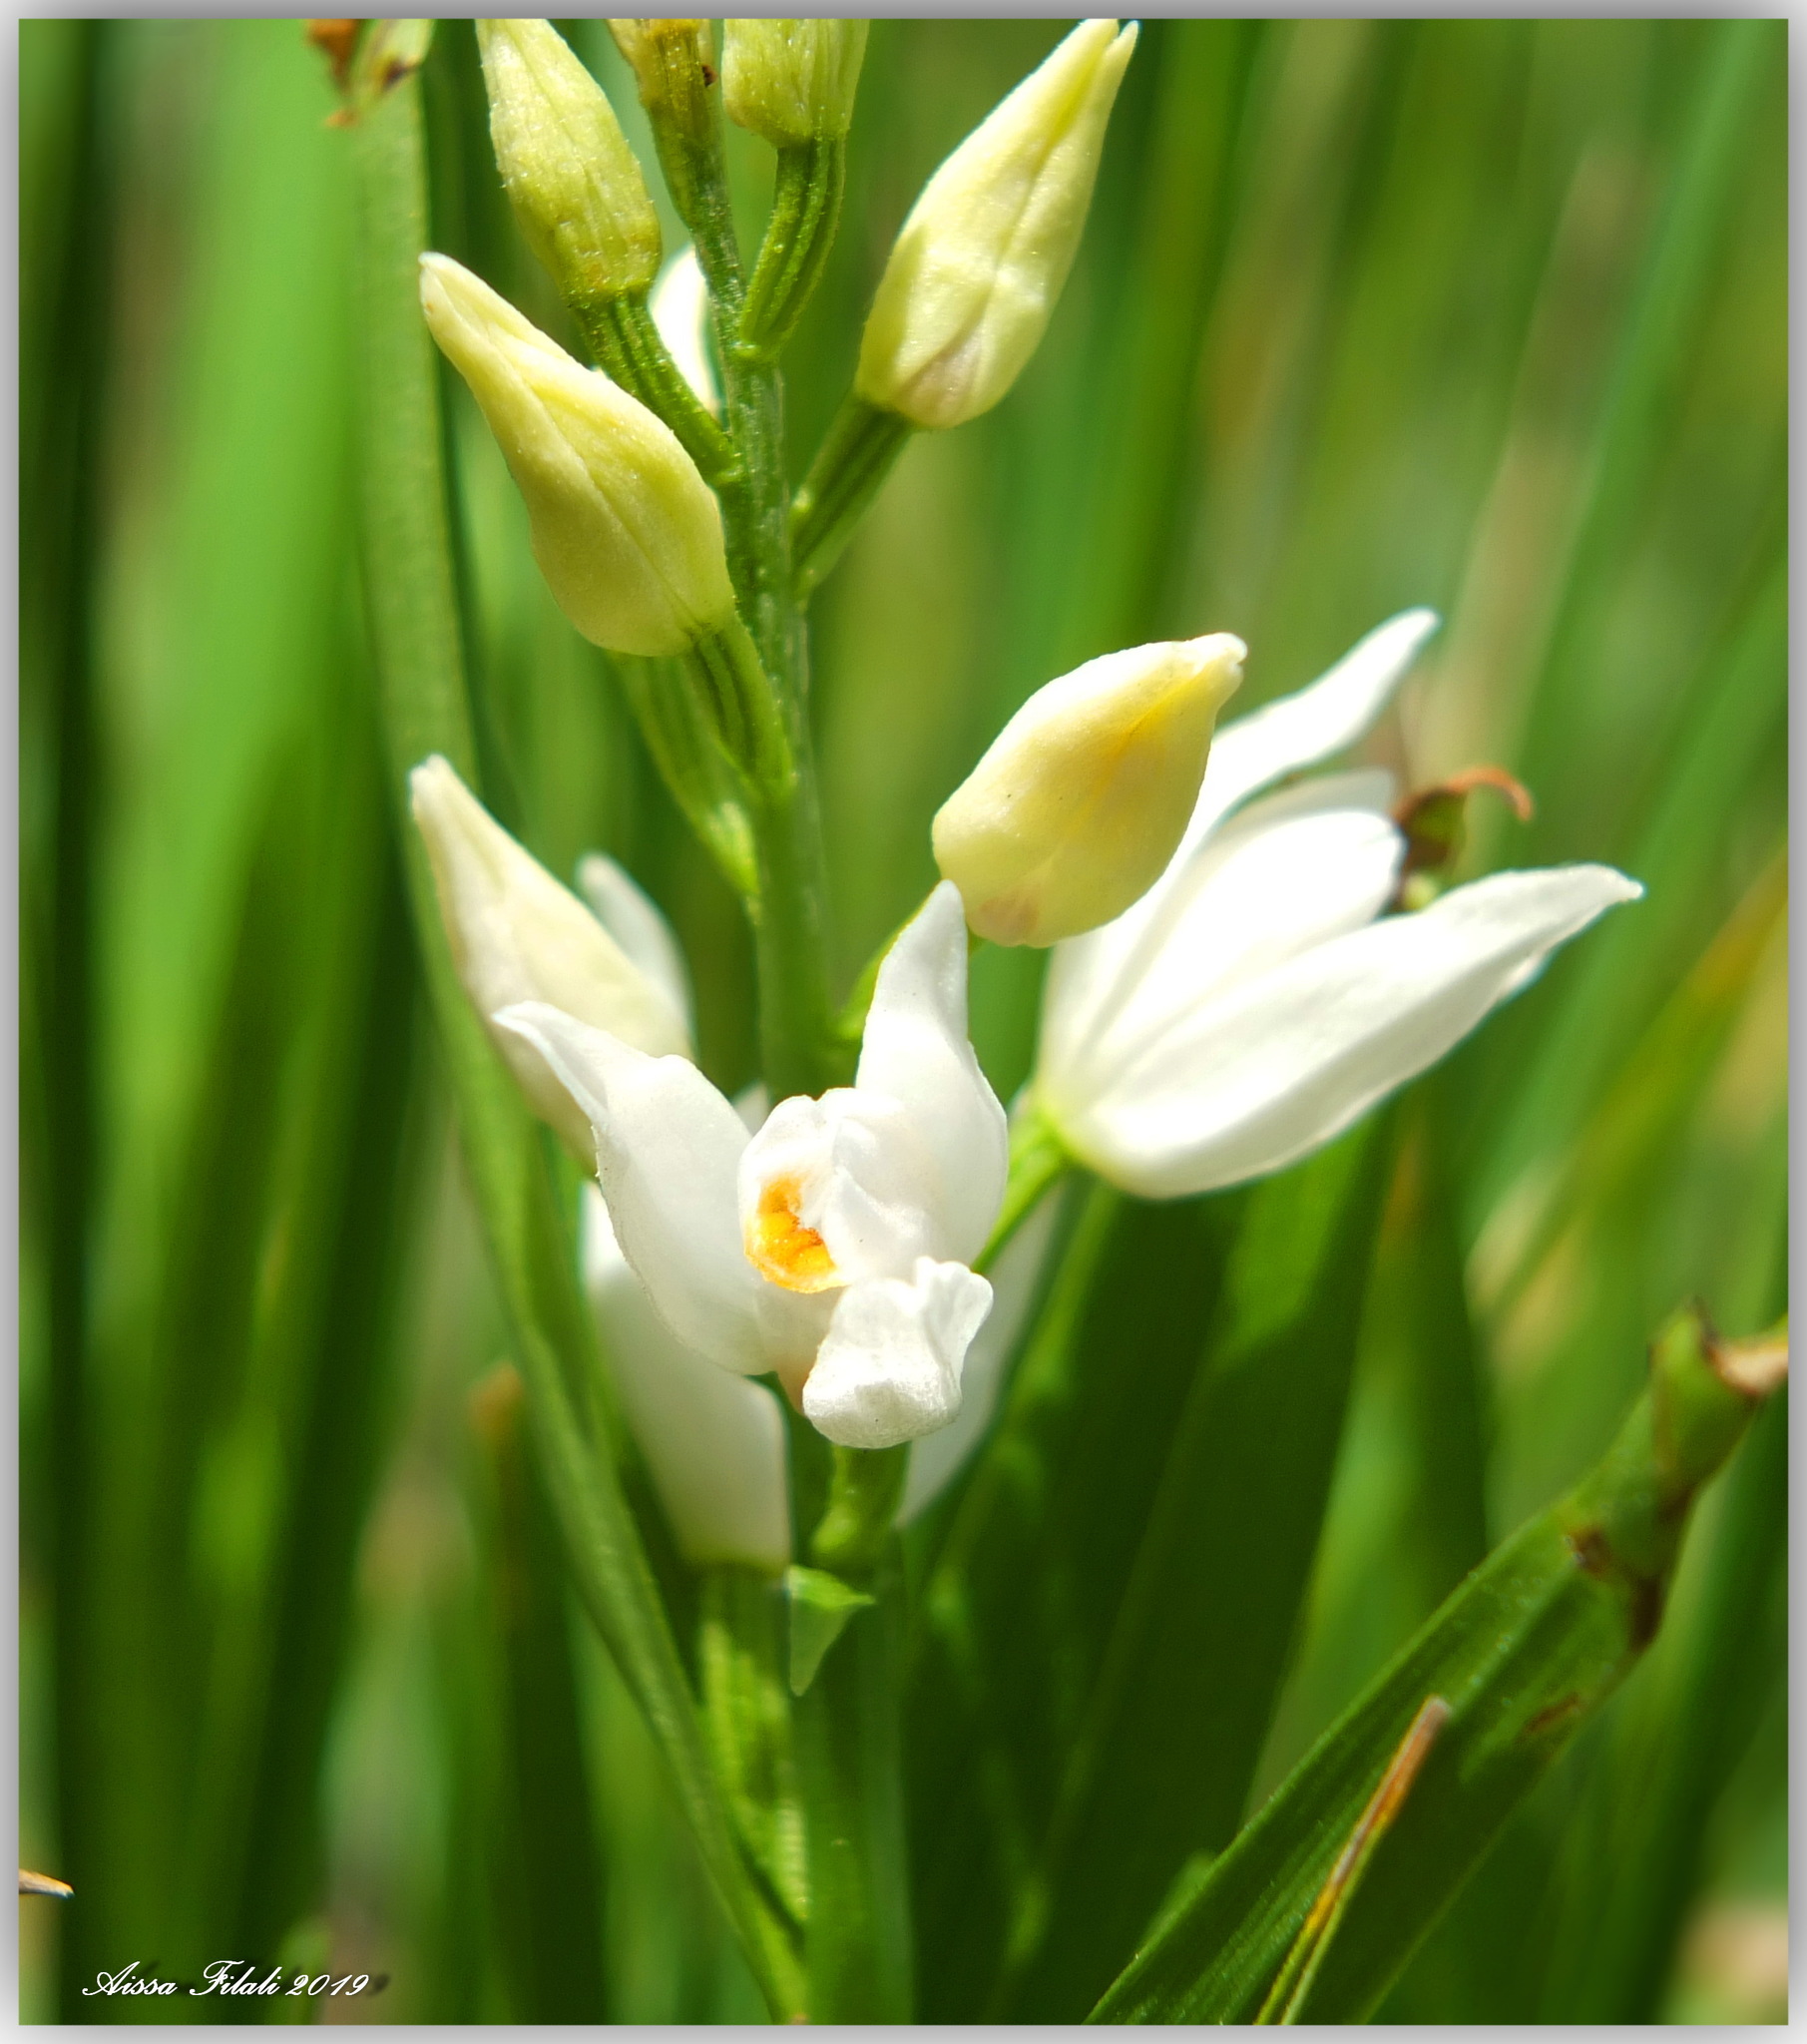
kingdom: Plantae
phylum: Tracheophyta
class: Liliopsida
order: Asparagales
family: Orchidaceae
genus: Cephalanthera
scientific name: Cephalanthera longifolia
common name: Narrow-leaved helleborine
